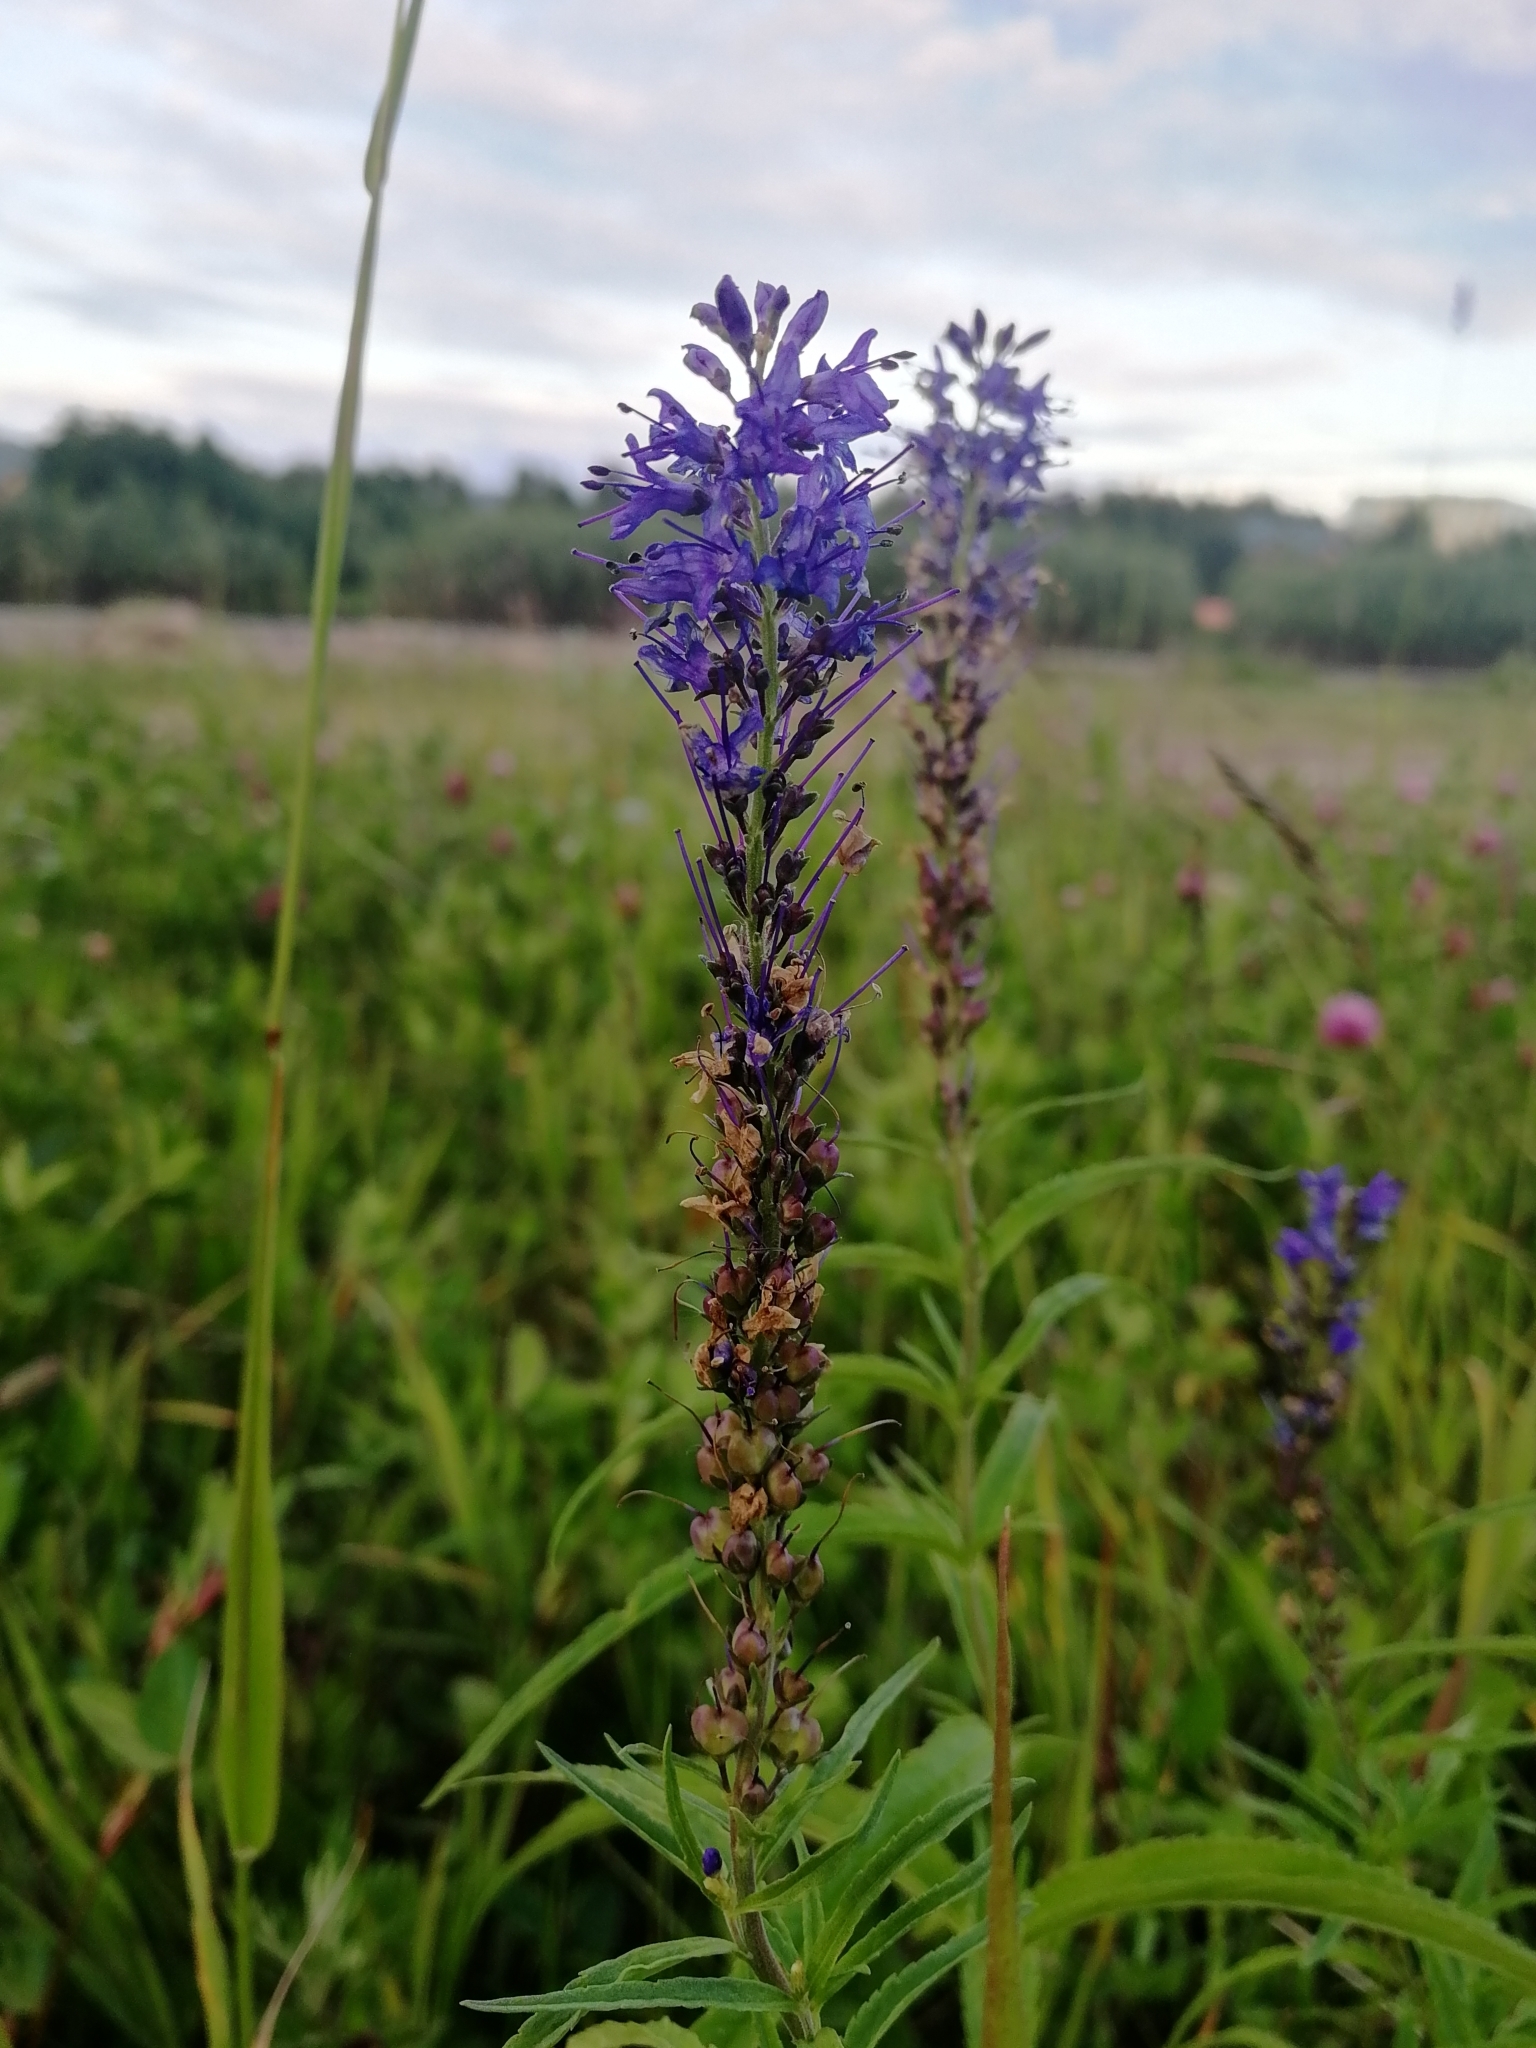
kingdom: Plantae
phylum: Tracheophyta
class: Magnoliopsida
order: Lamiales
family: Plantaginaceae
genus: Veronica
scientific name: Veronica longifolia
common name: Garden speedwell
